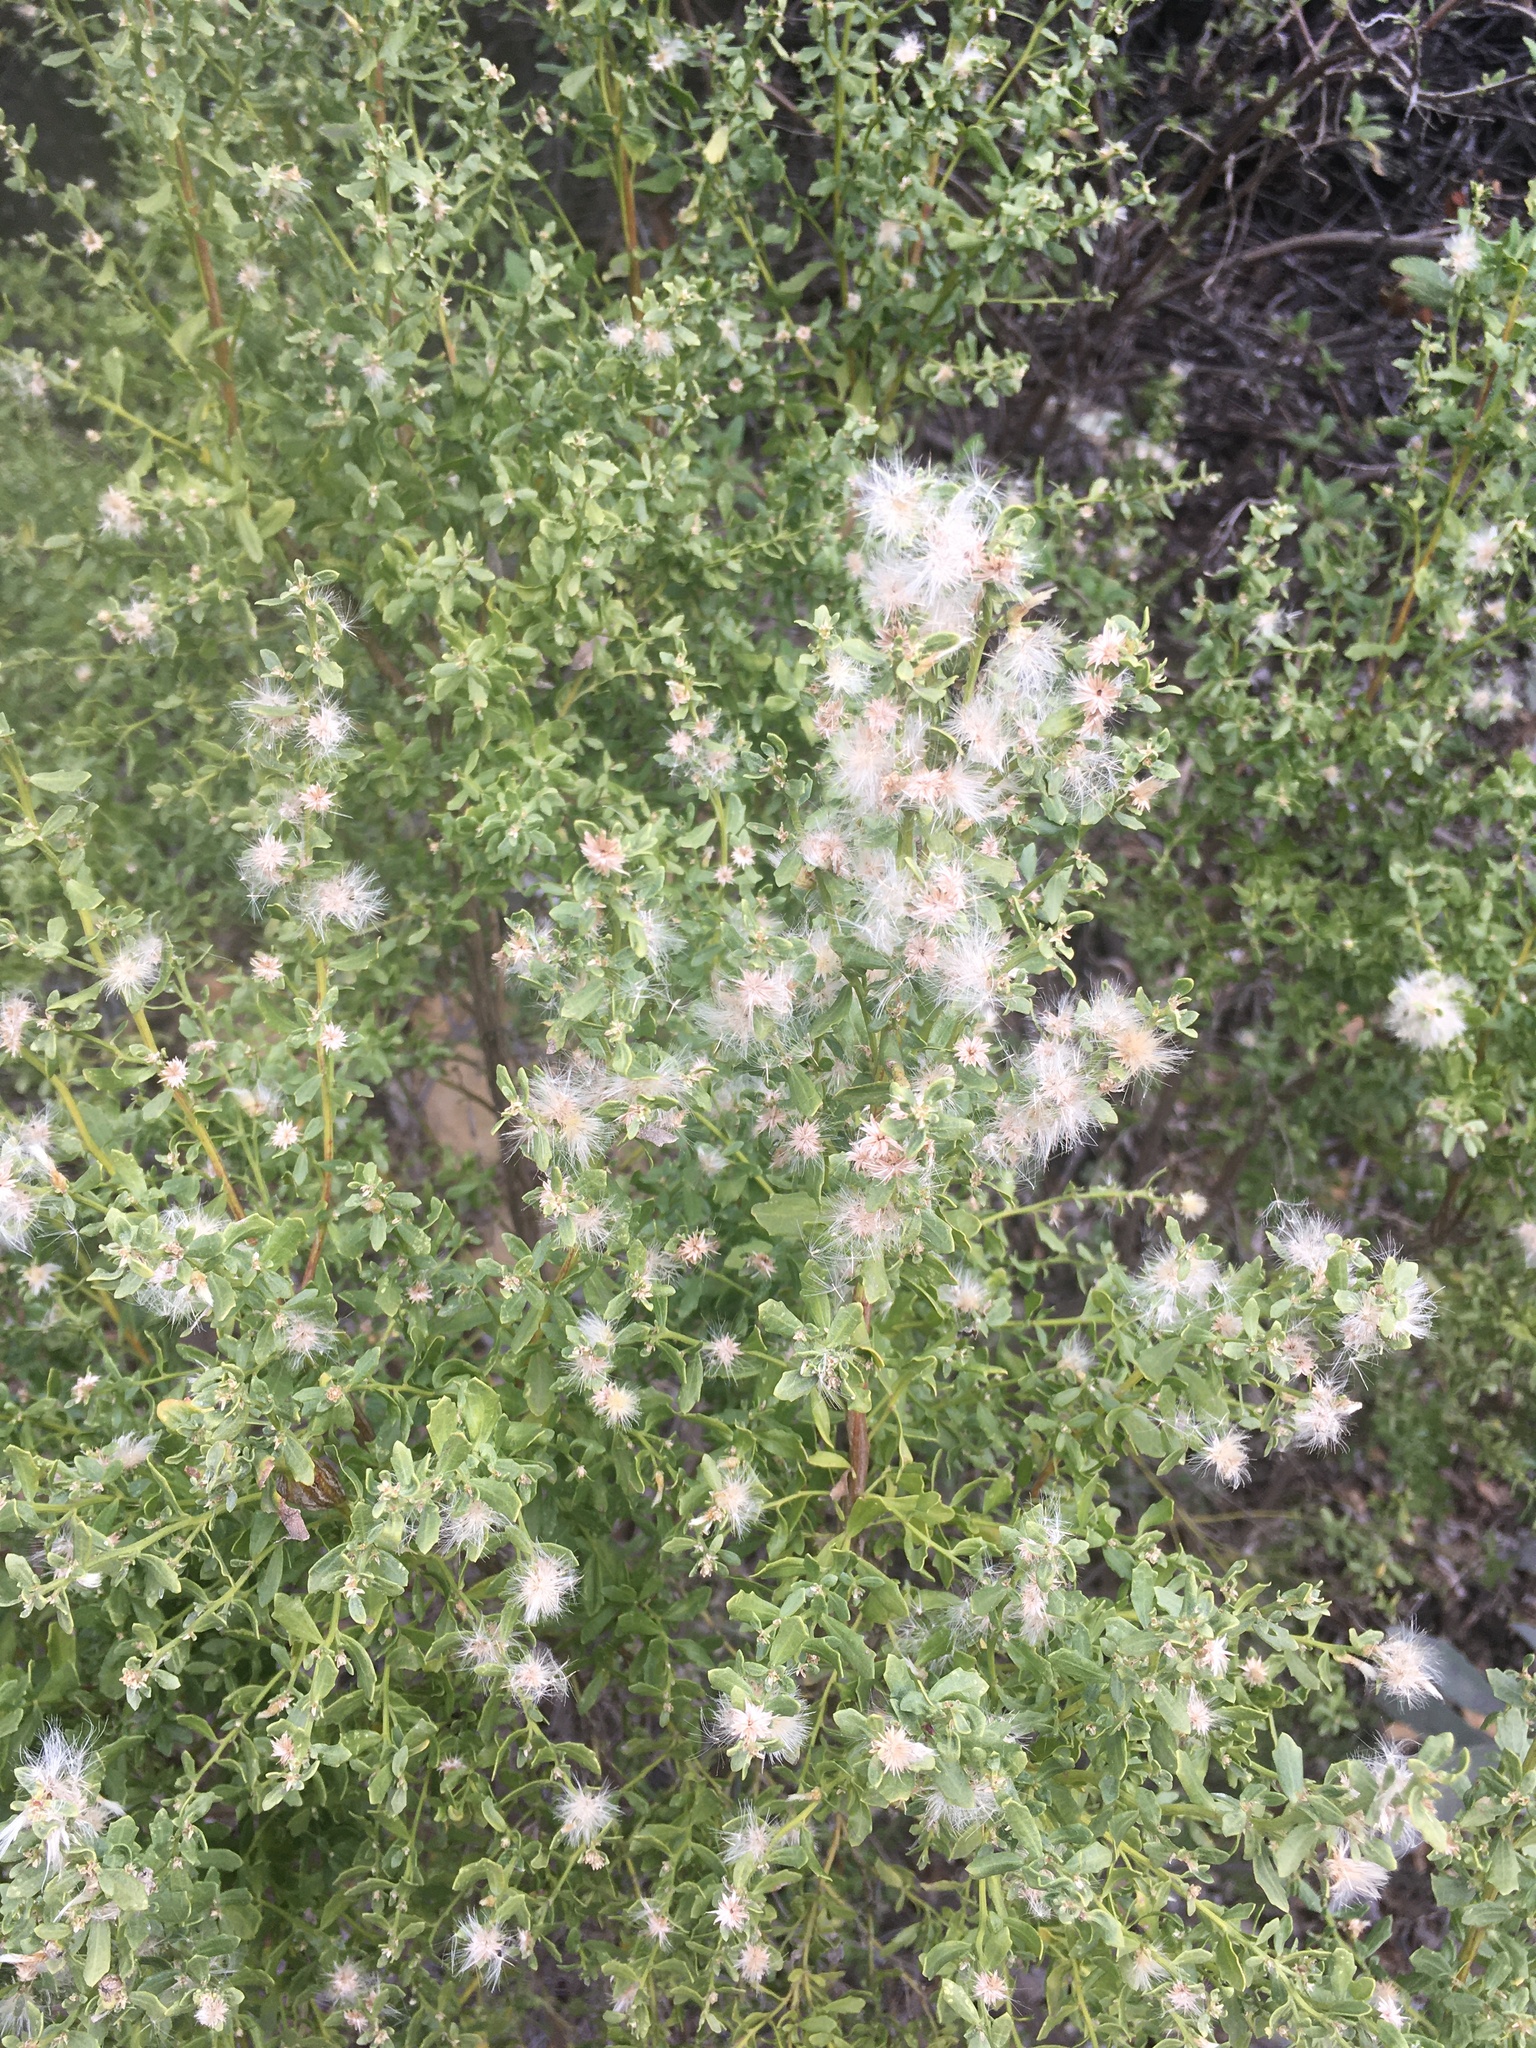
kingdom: Plantae
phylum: Tracheophyta
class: Magnoliopsida
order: Asterales
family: Asteraceae
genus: Baccharis
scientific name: Baccharis pilularis
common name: Coyotebrush
